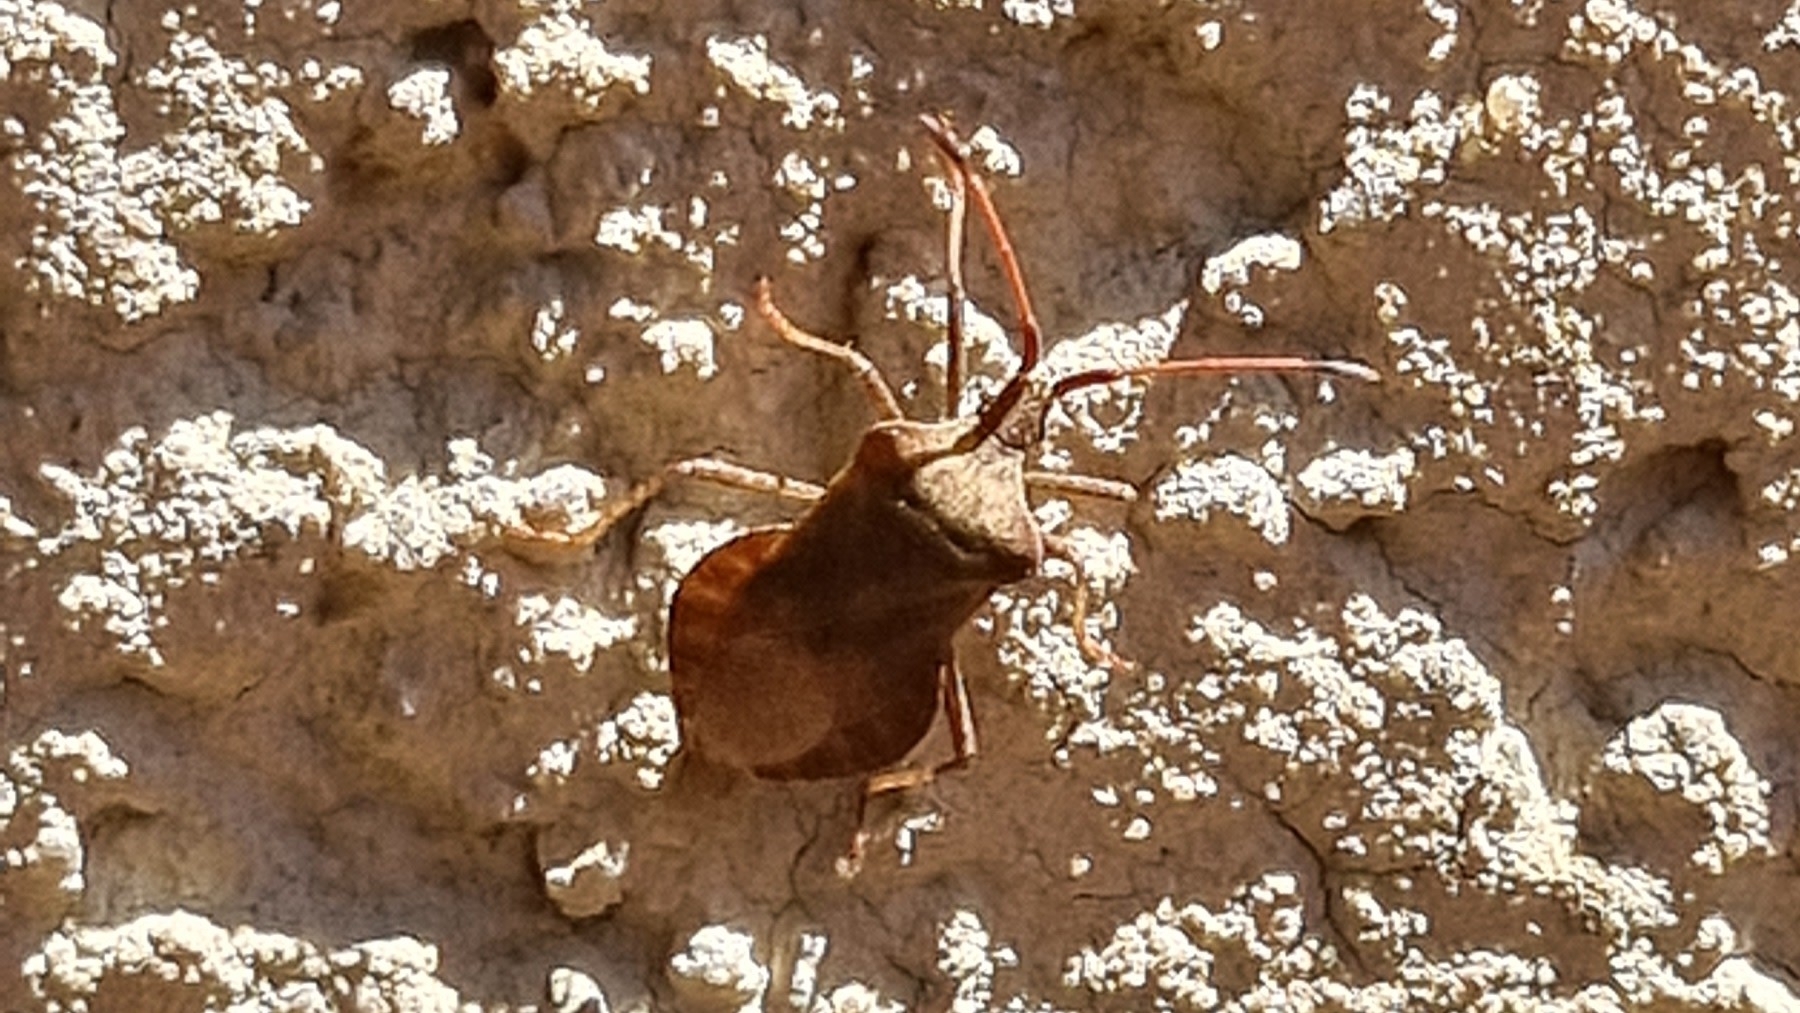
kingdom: Animalia
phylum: Arthropoda
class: Insecta
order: Hemiptera
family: Coreidae
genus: Coreus
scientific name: Coreus marginatus
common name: Dock bug
